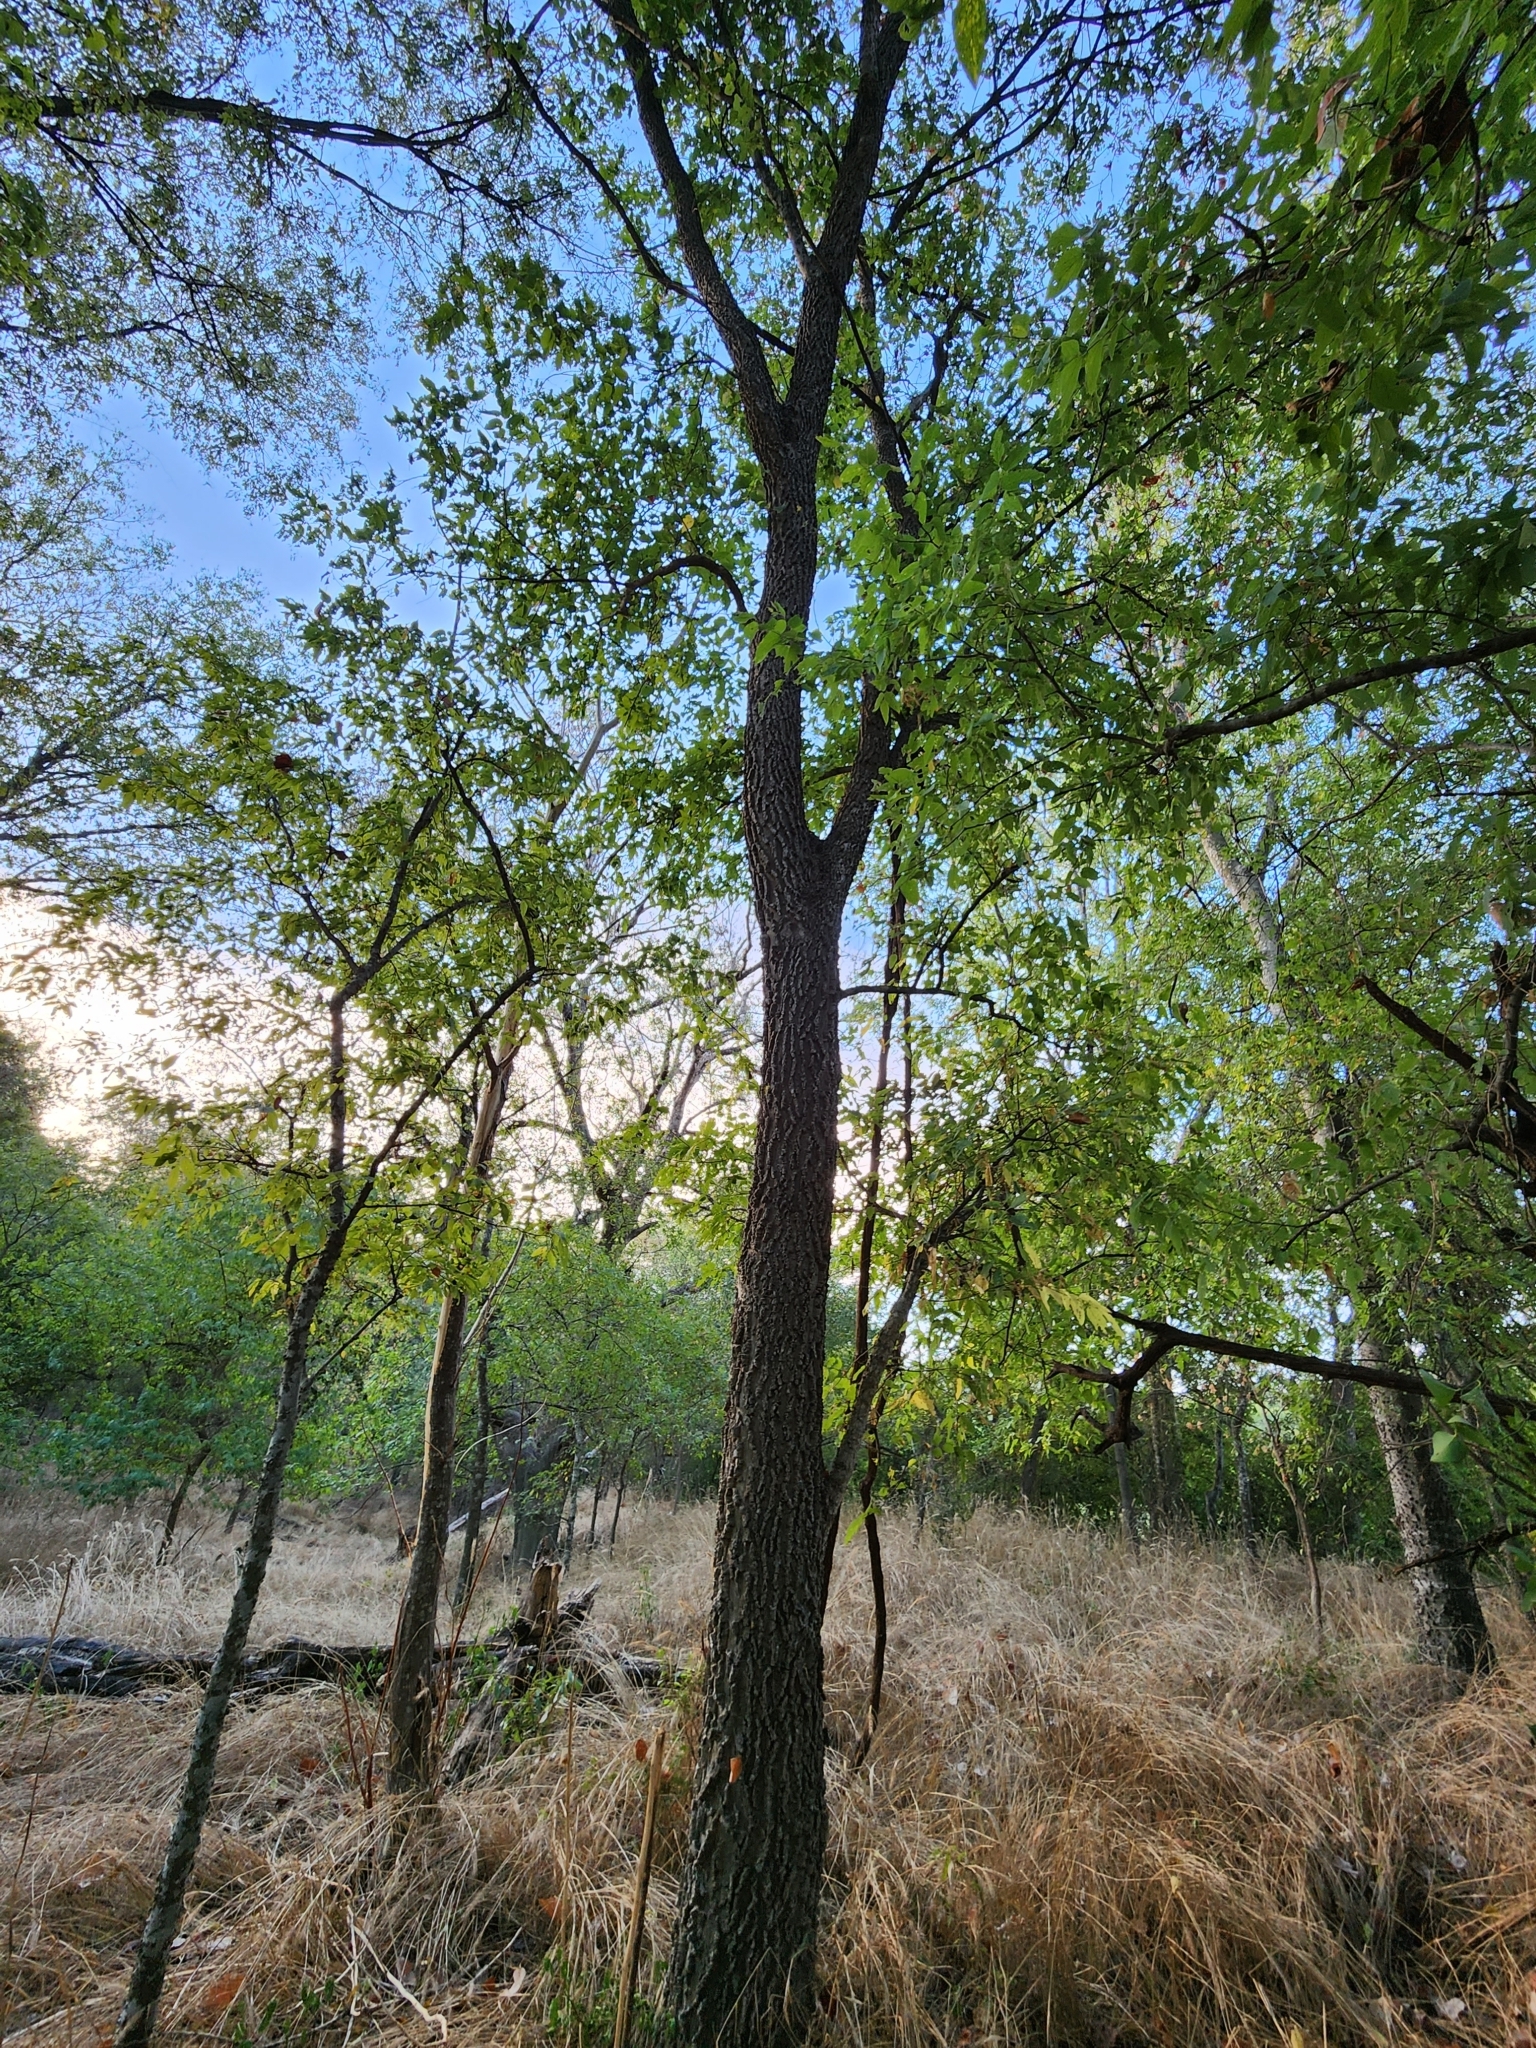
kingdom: Plantae
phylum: Tracheophyta
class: Magnoliopsida
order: Rosales
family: Cannabaceae
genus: Celtis
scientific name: Celtis laevigata
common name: Sugarberry
